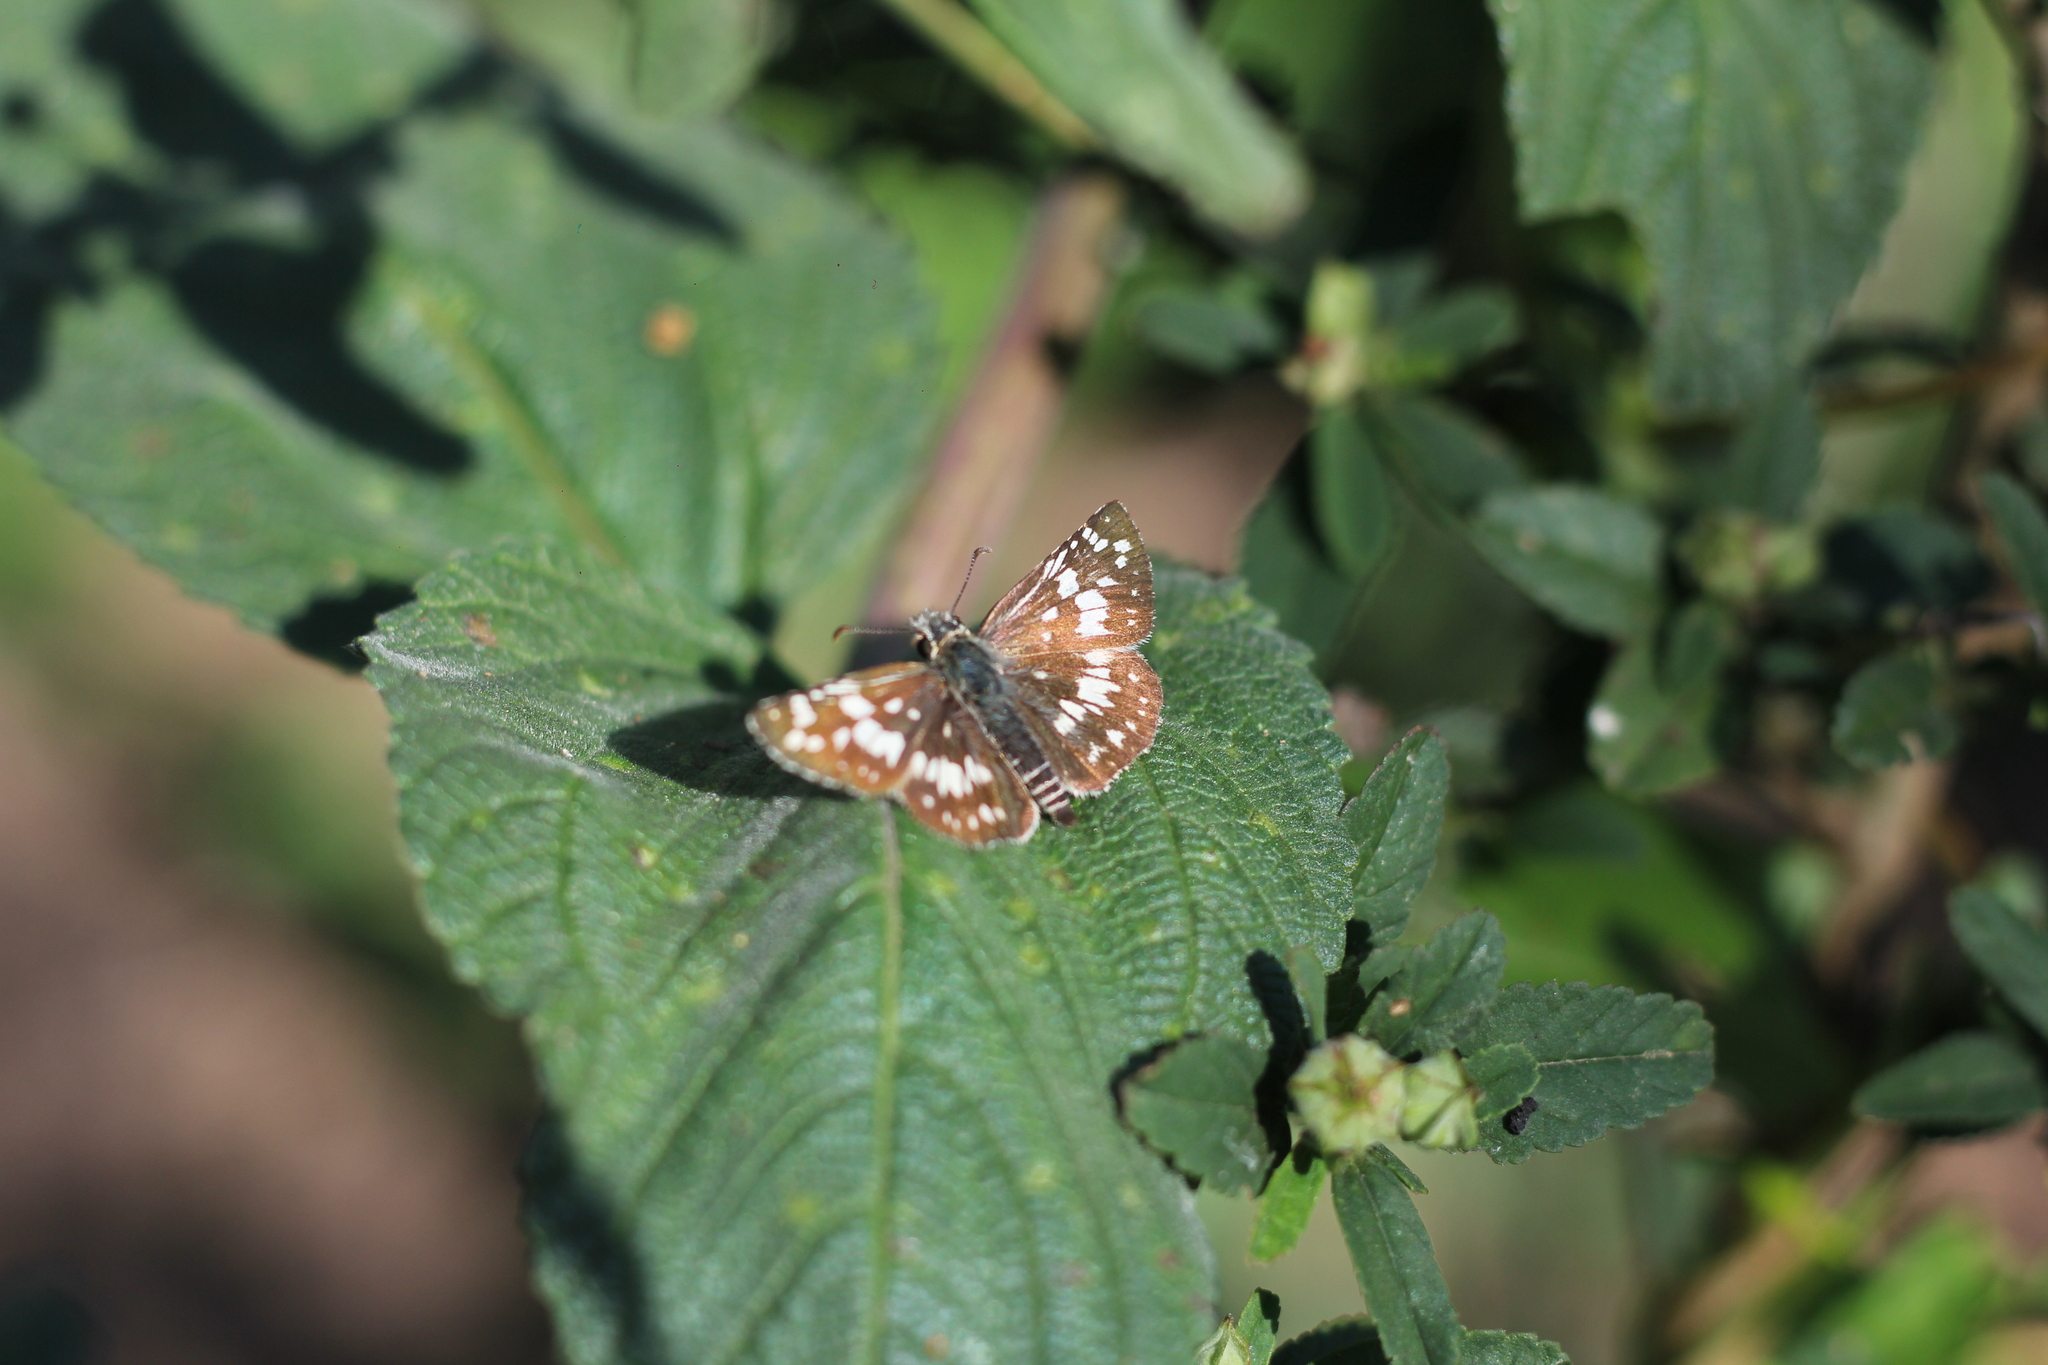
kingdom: Animalia
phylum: Arthropoda
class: Insecta
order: Lepidoptera
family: Hesperiidae
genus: Burnsius
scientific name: Burnsius orcynoides
